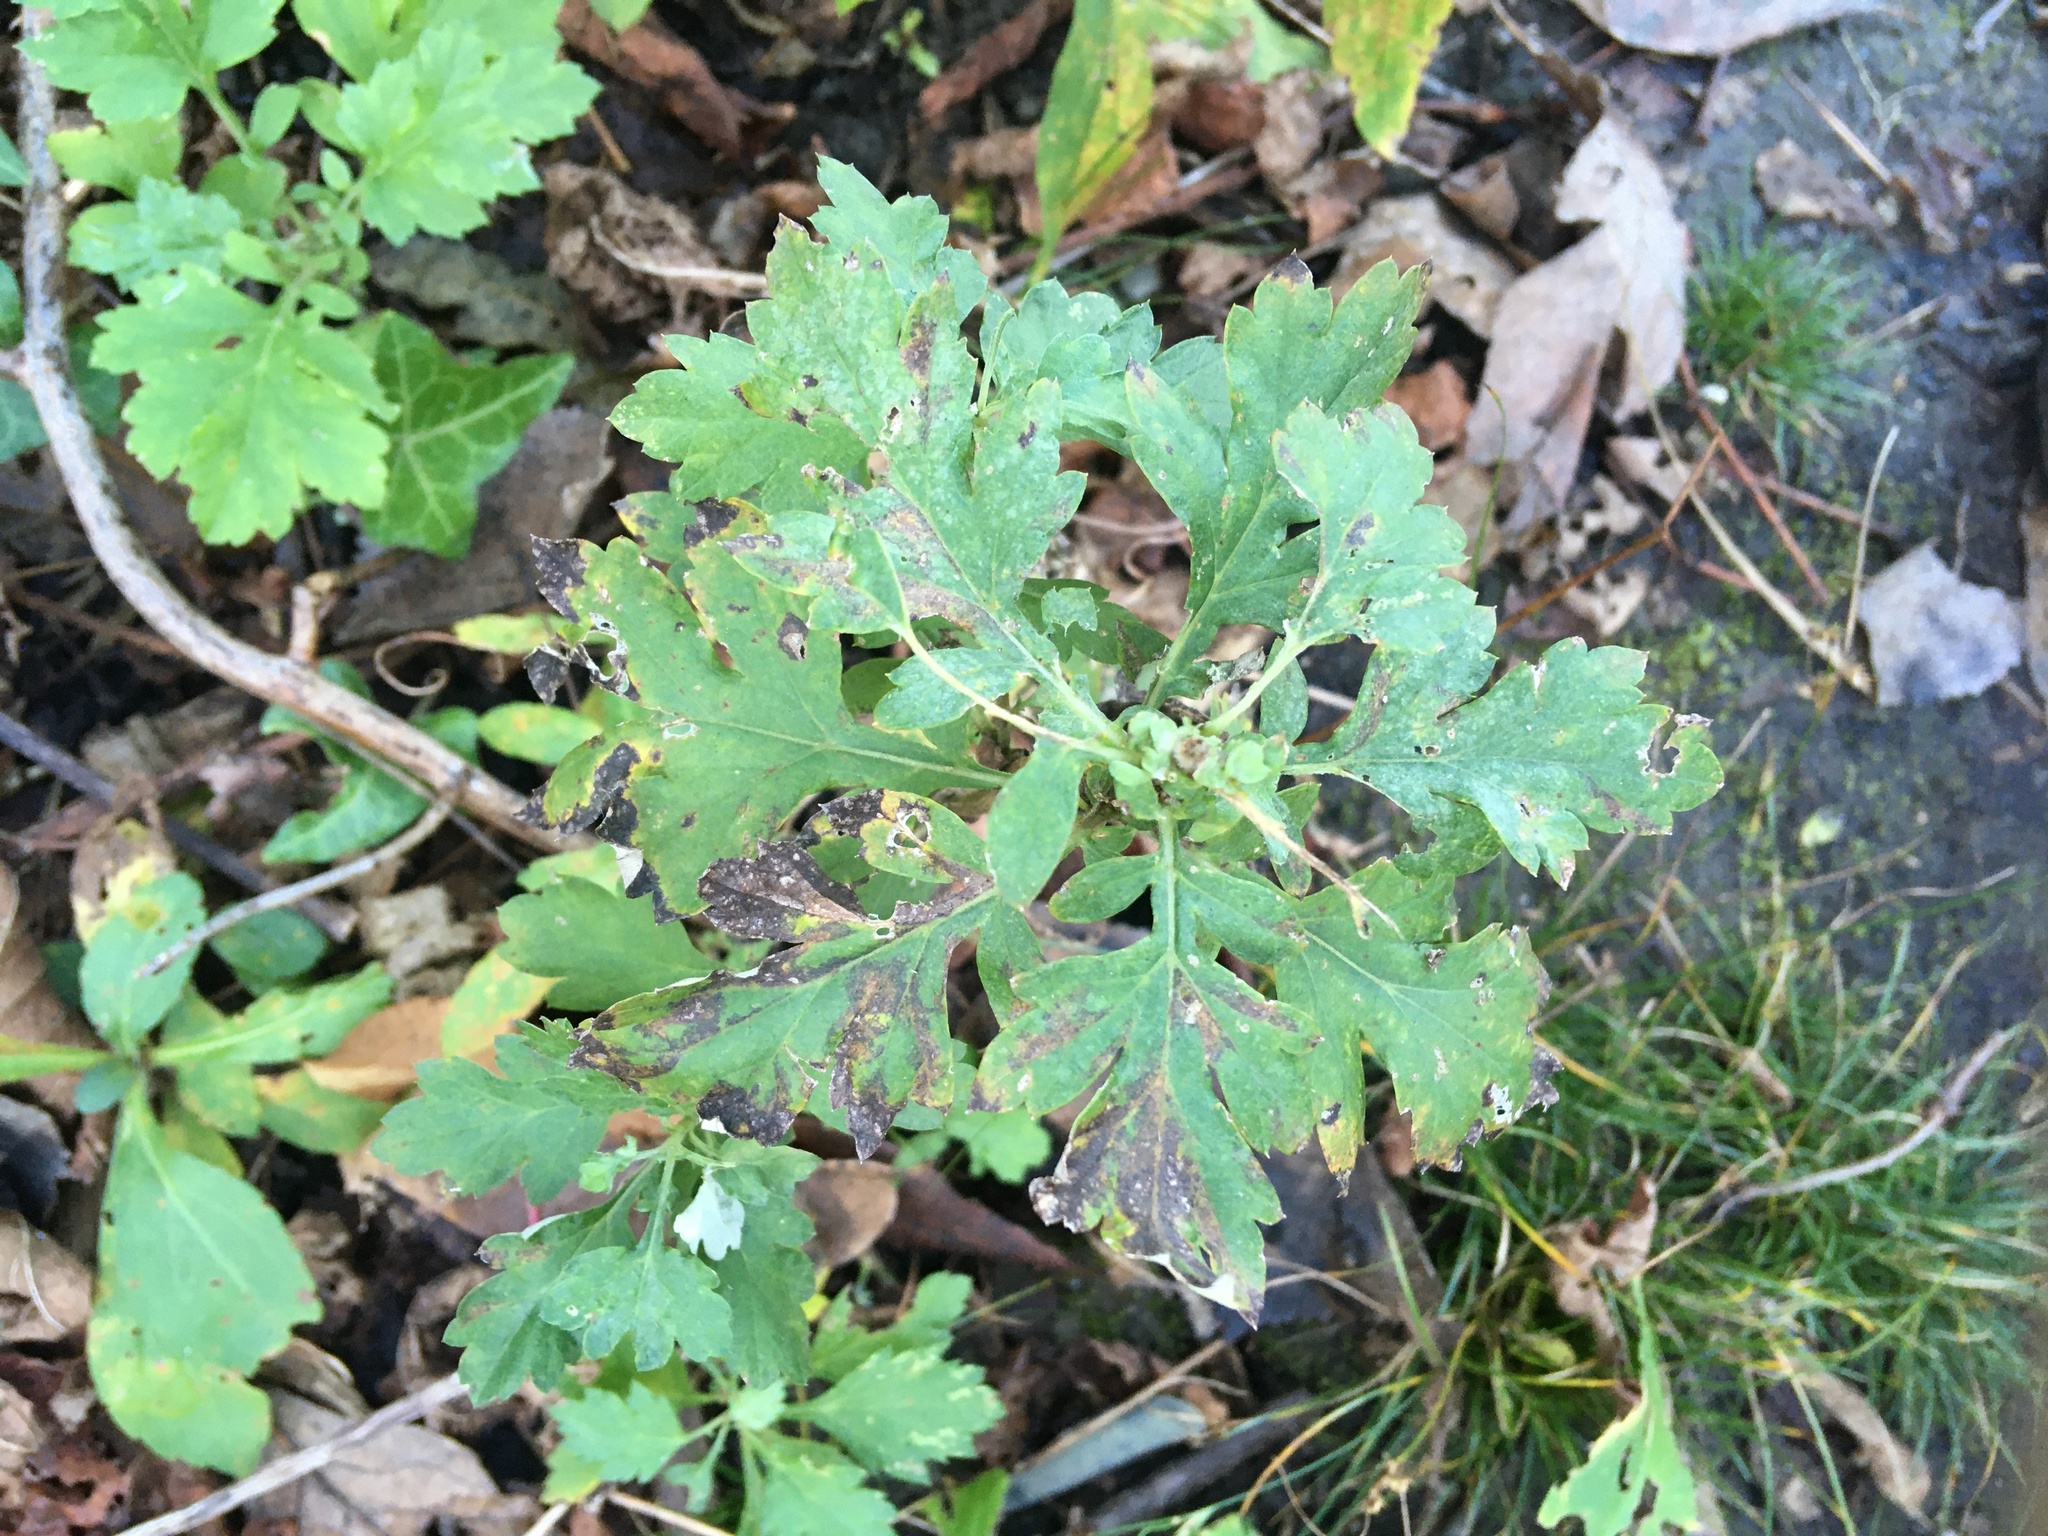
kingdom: Plantae
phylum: Tracheophyta
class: Magnoliopsida
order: Asterales
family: Asteraceae
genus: Artemisia
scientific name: Artemisia vulgaris
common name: Mugwort
